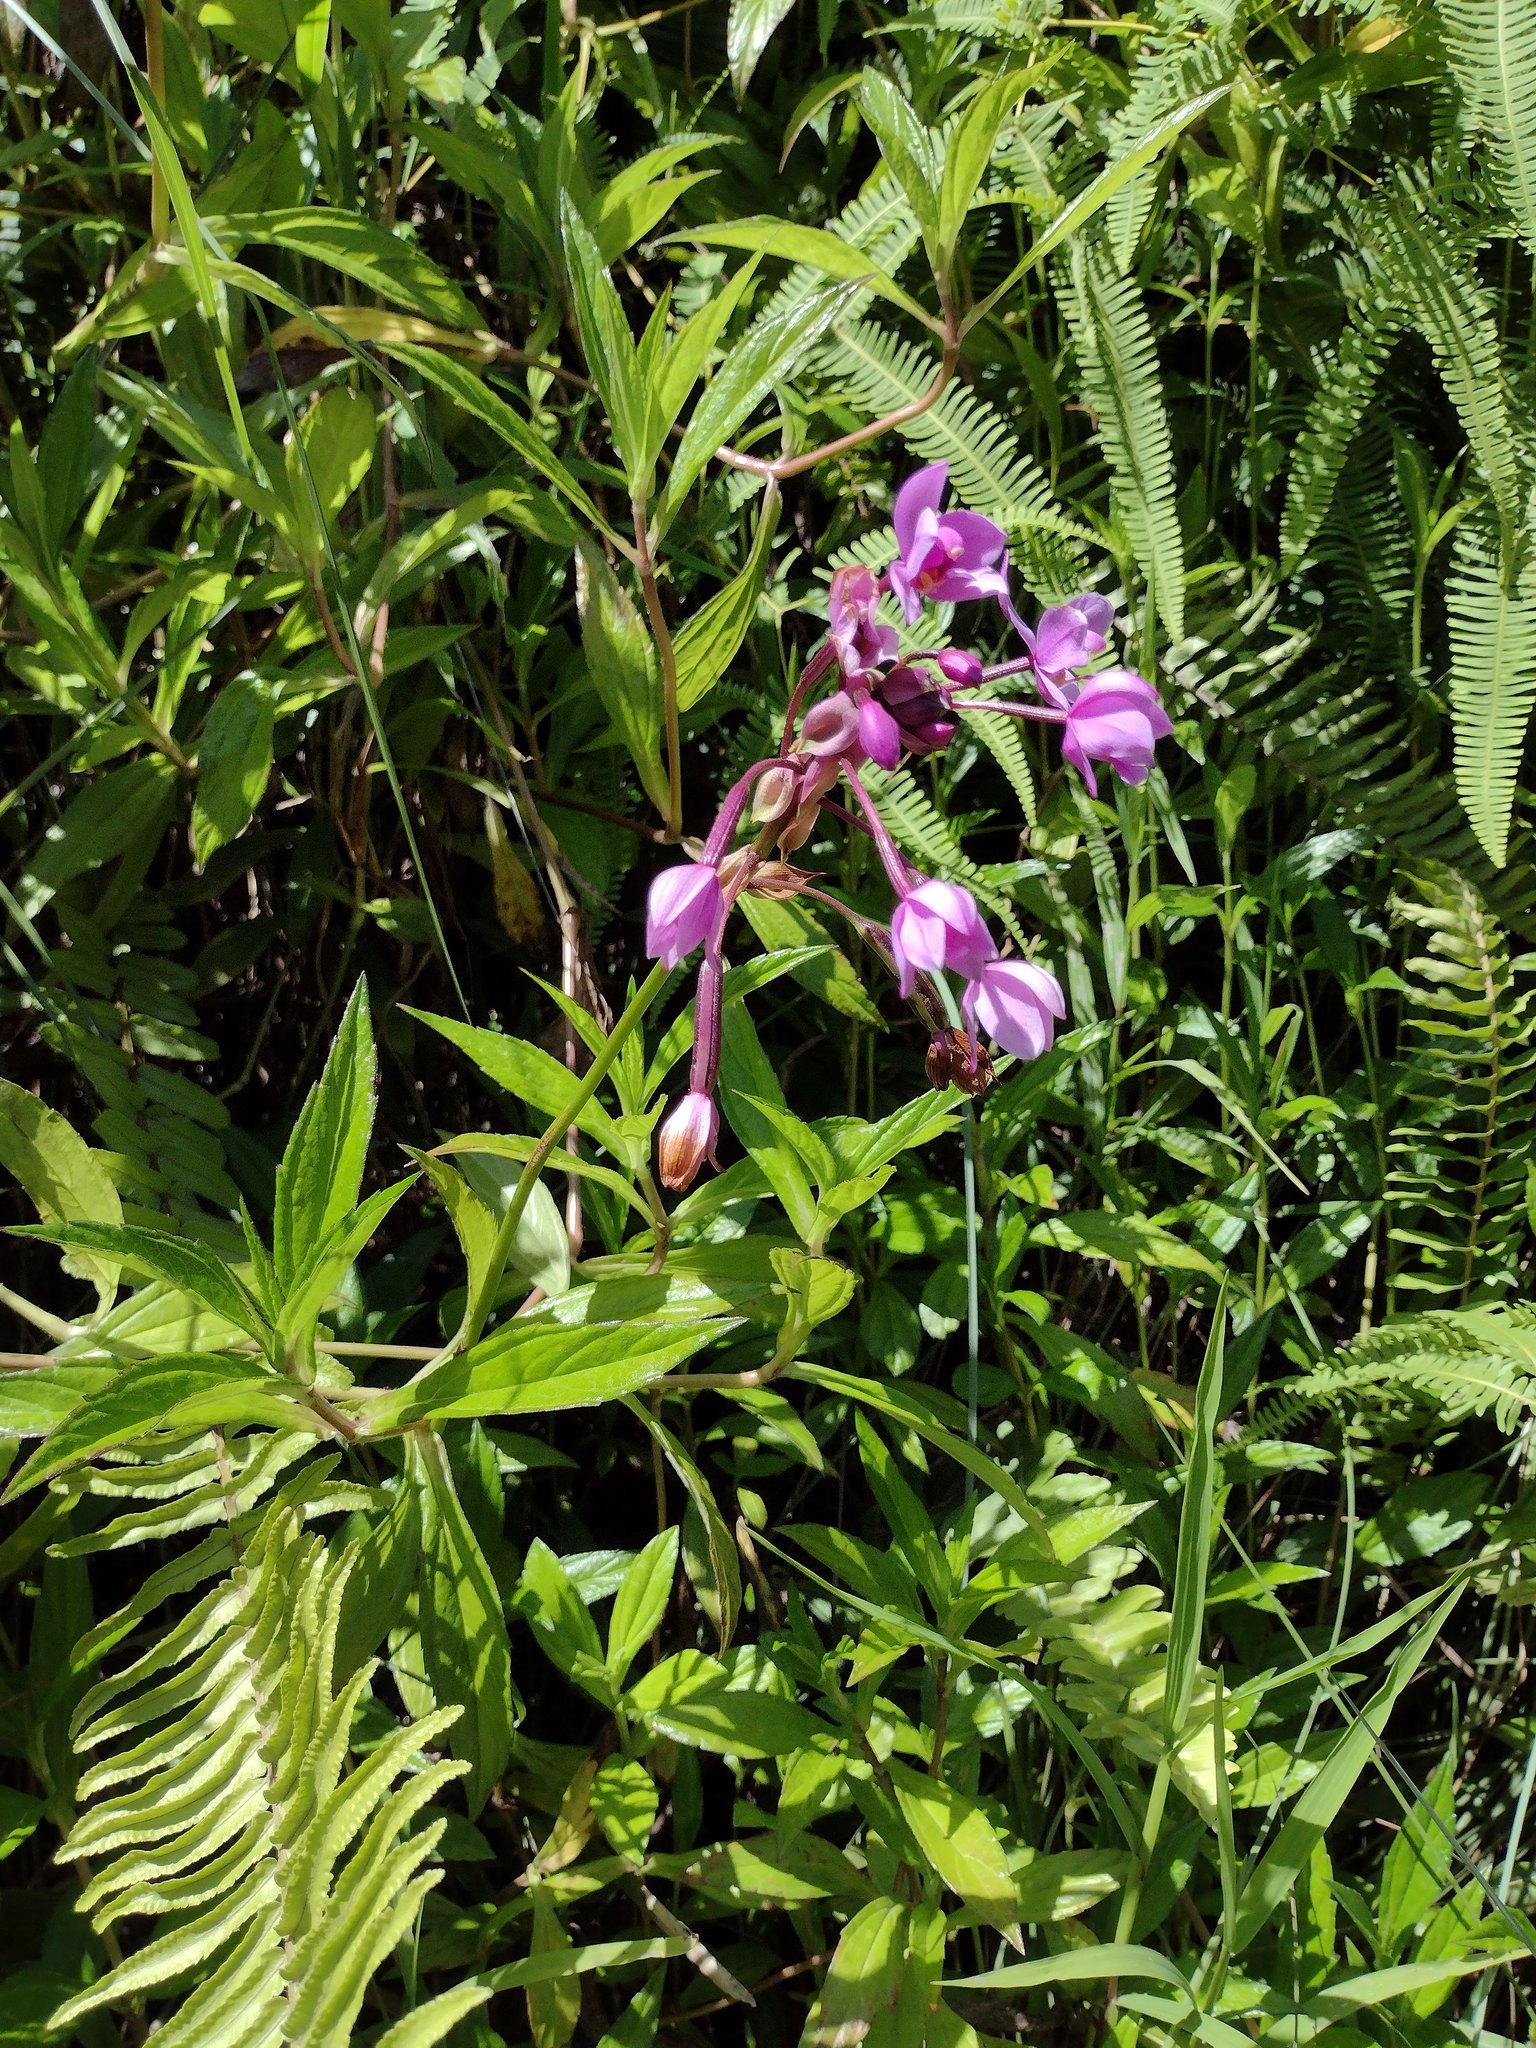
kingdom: Plantae
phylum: Tracheophyta
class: Liliopsida
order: Asparagales
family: Orchidaceae
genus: Spathoglottis
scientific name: Spathoglottis plicata
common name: Philippine ground orchid
